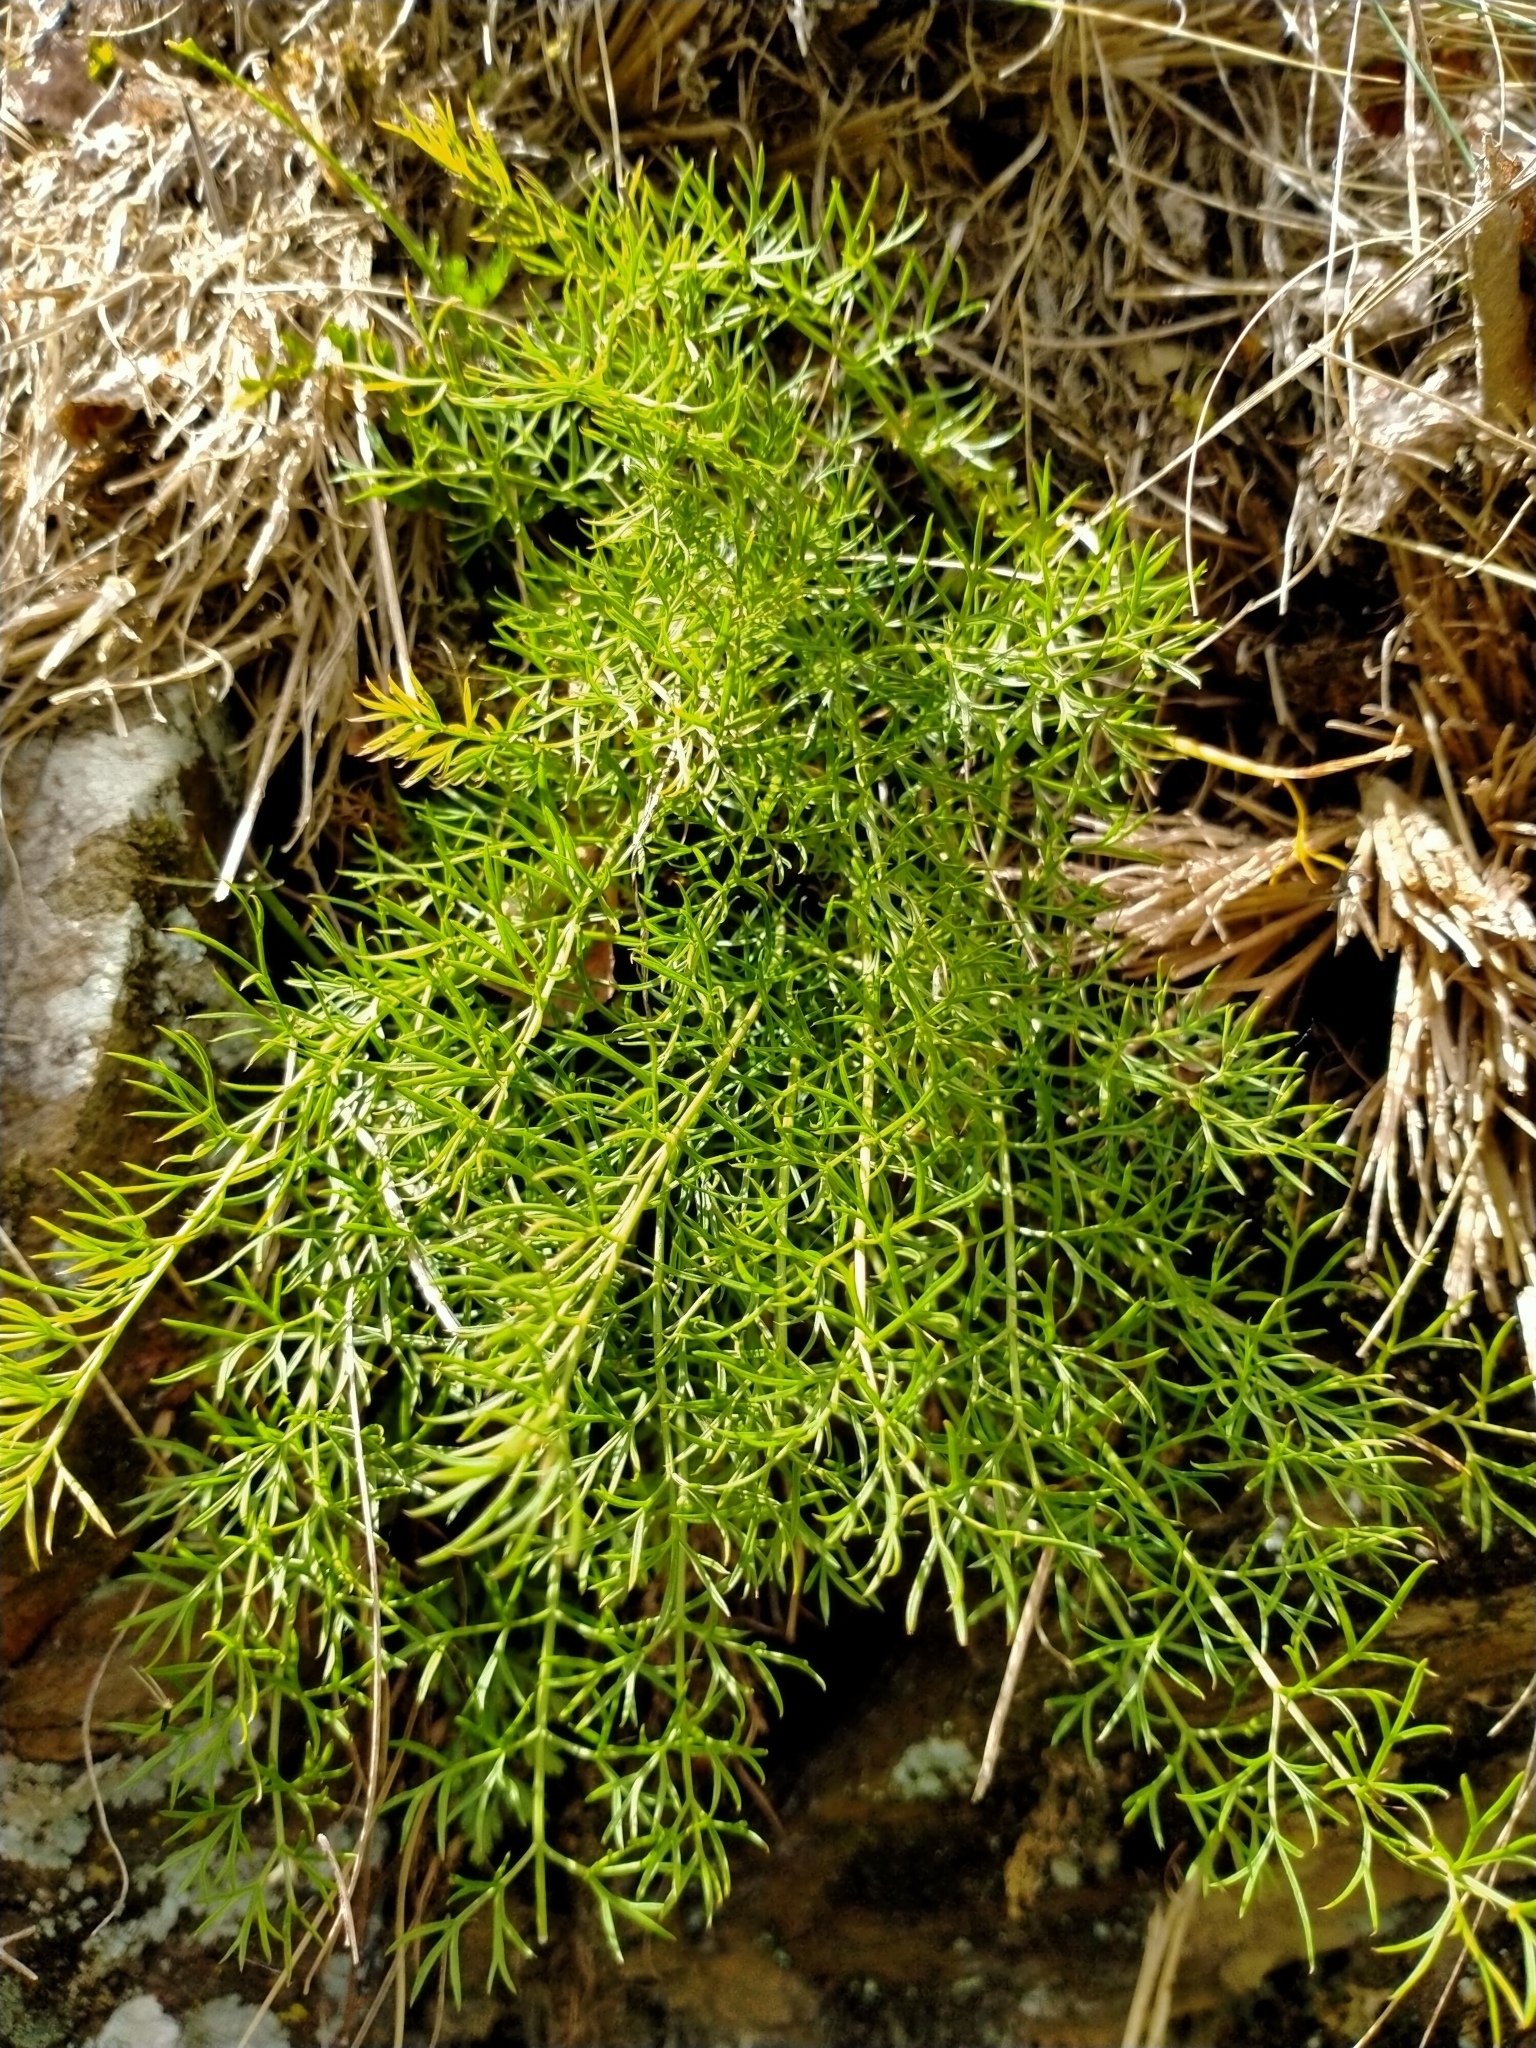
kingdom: Plantae
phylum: Tracheophyta
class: Magnoliopsida
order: Apiales
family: Apiaceae
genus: Anisotome
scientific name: Anisotome brevistylis
